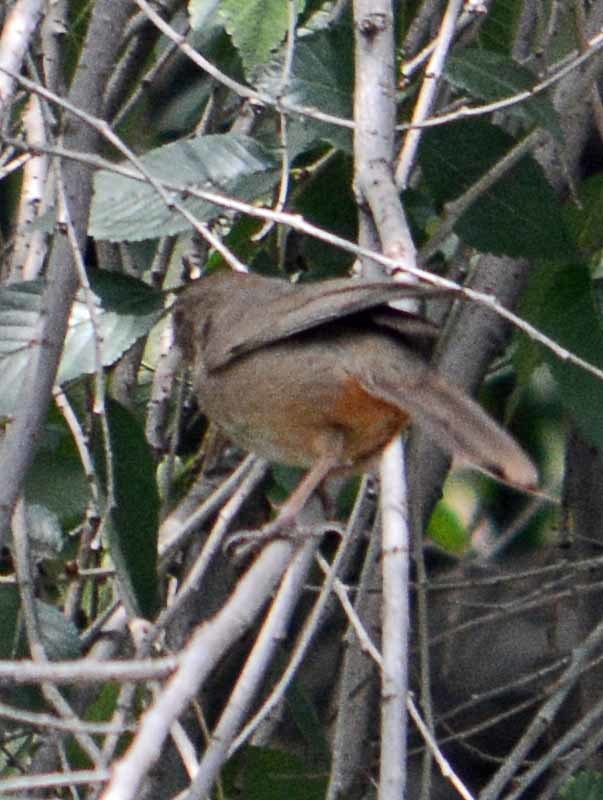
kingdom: Animalia
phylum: Chordata
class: Aves
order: Passeriformes
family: Passerellidae
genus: Melozone
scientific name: Melozone fusca
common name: Canyon towhee
